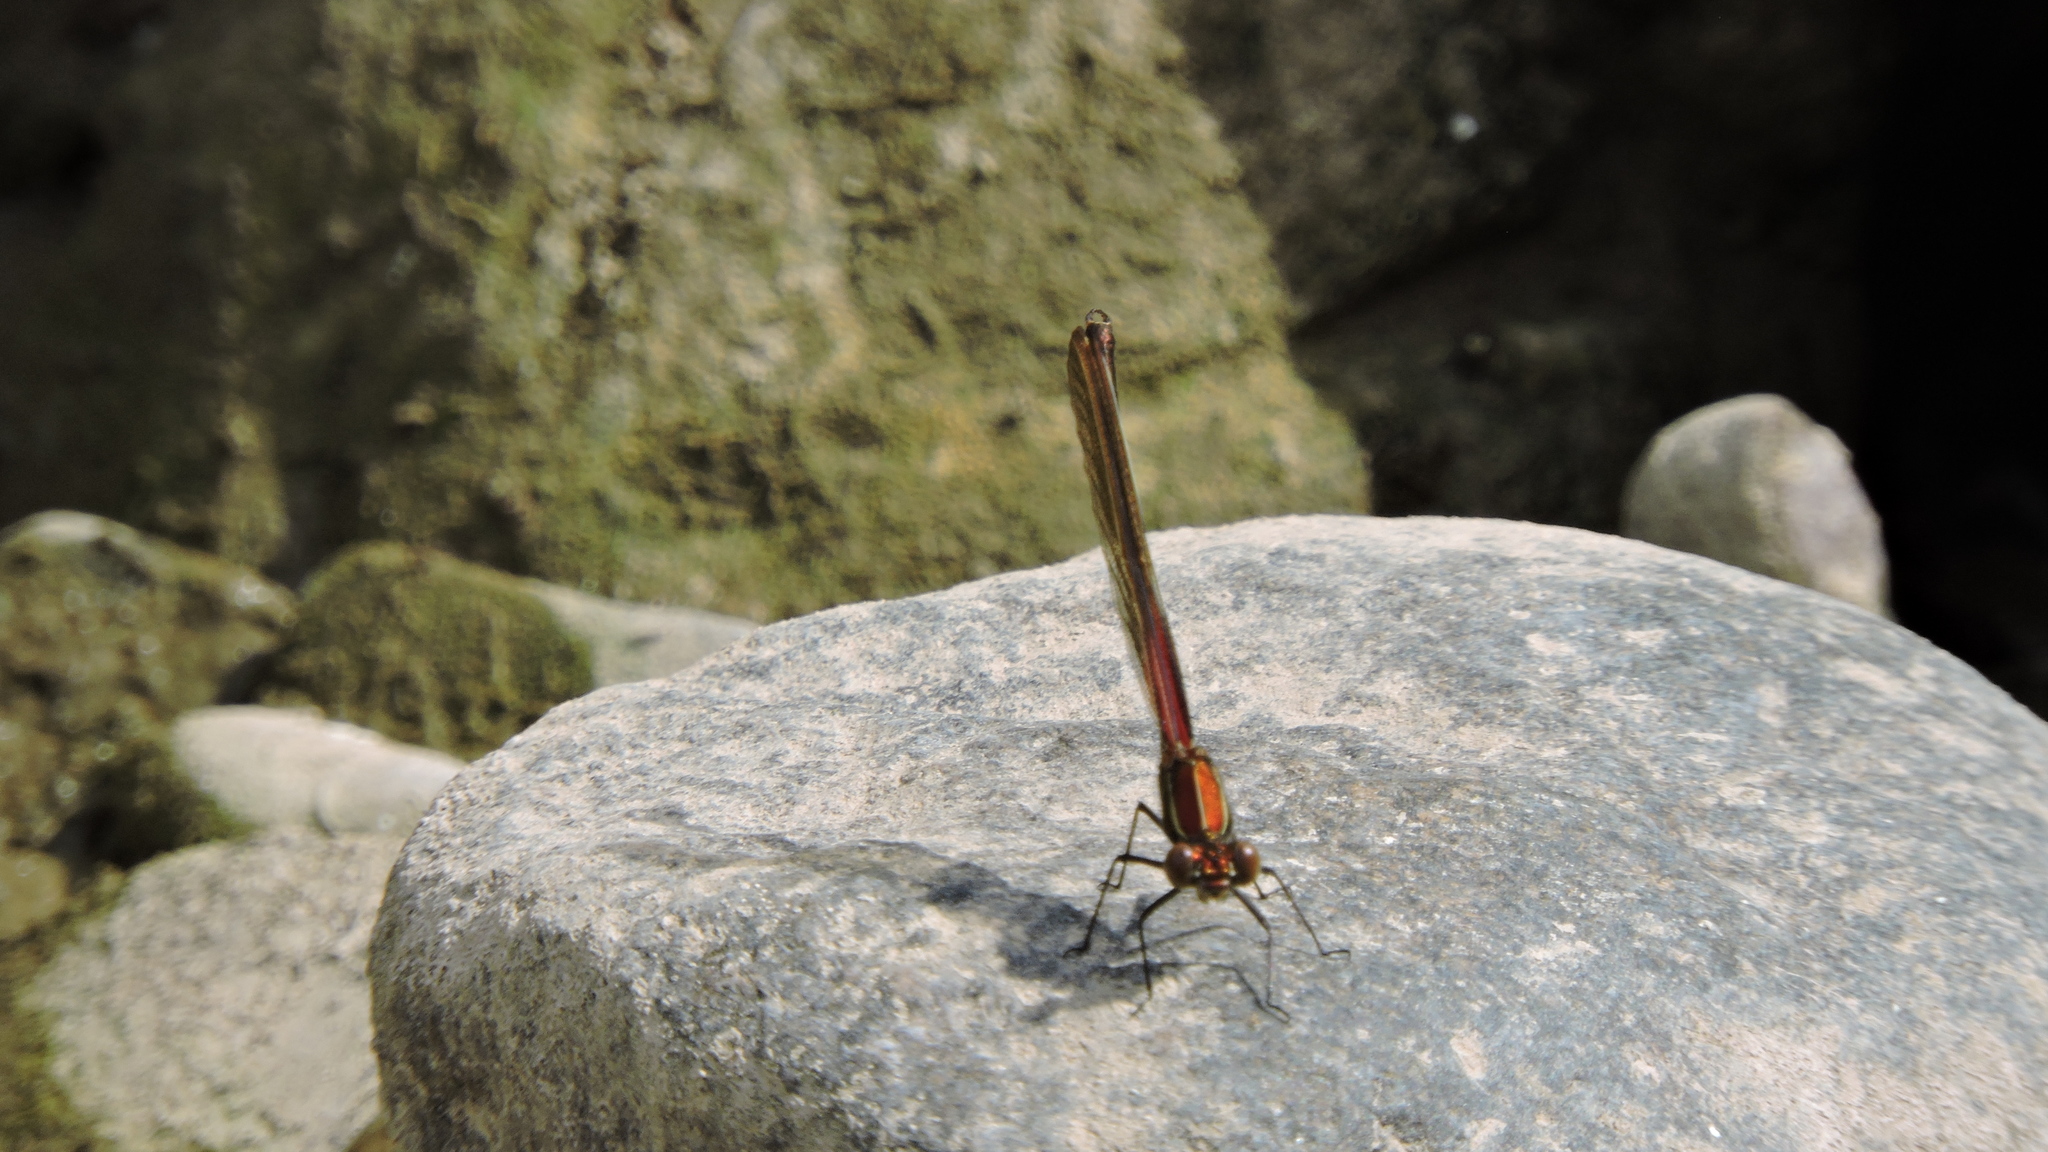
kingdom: Animalia
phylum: Arthropoda
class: Insecta
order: Odonata
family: Calopterygidae
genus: Hetaerina
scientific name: Hetaerina americana
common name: American rubyspot
